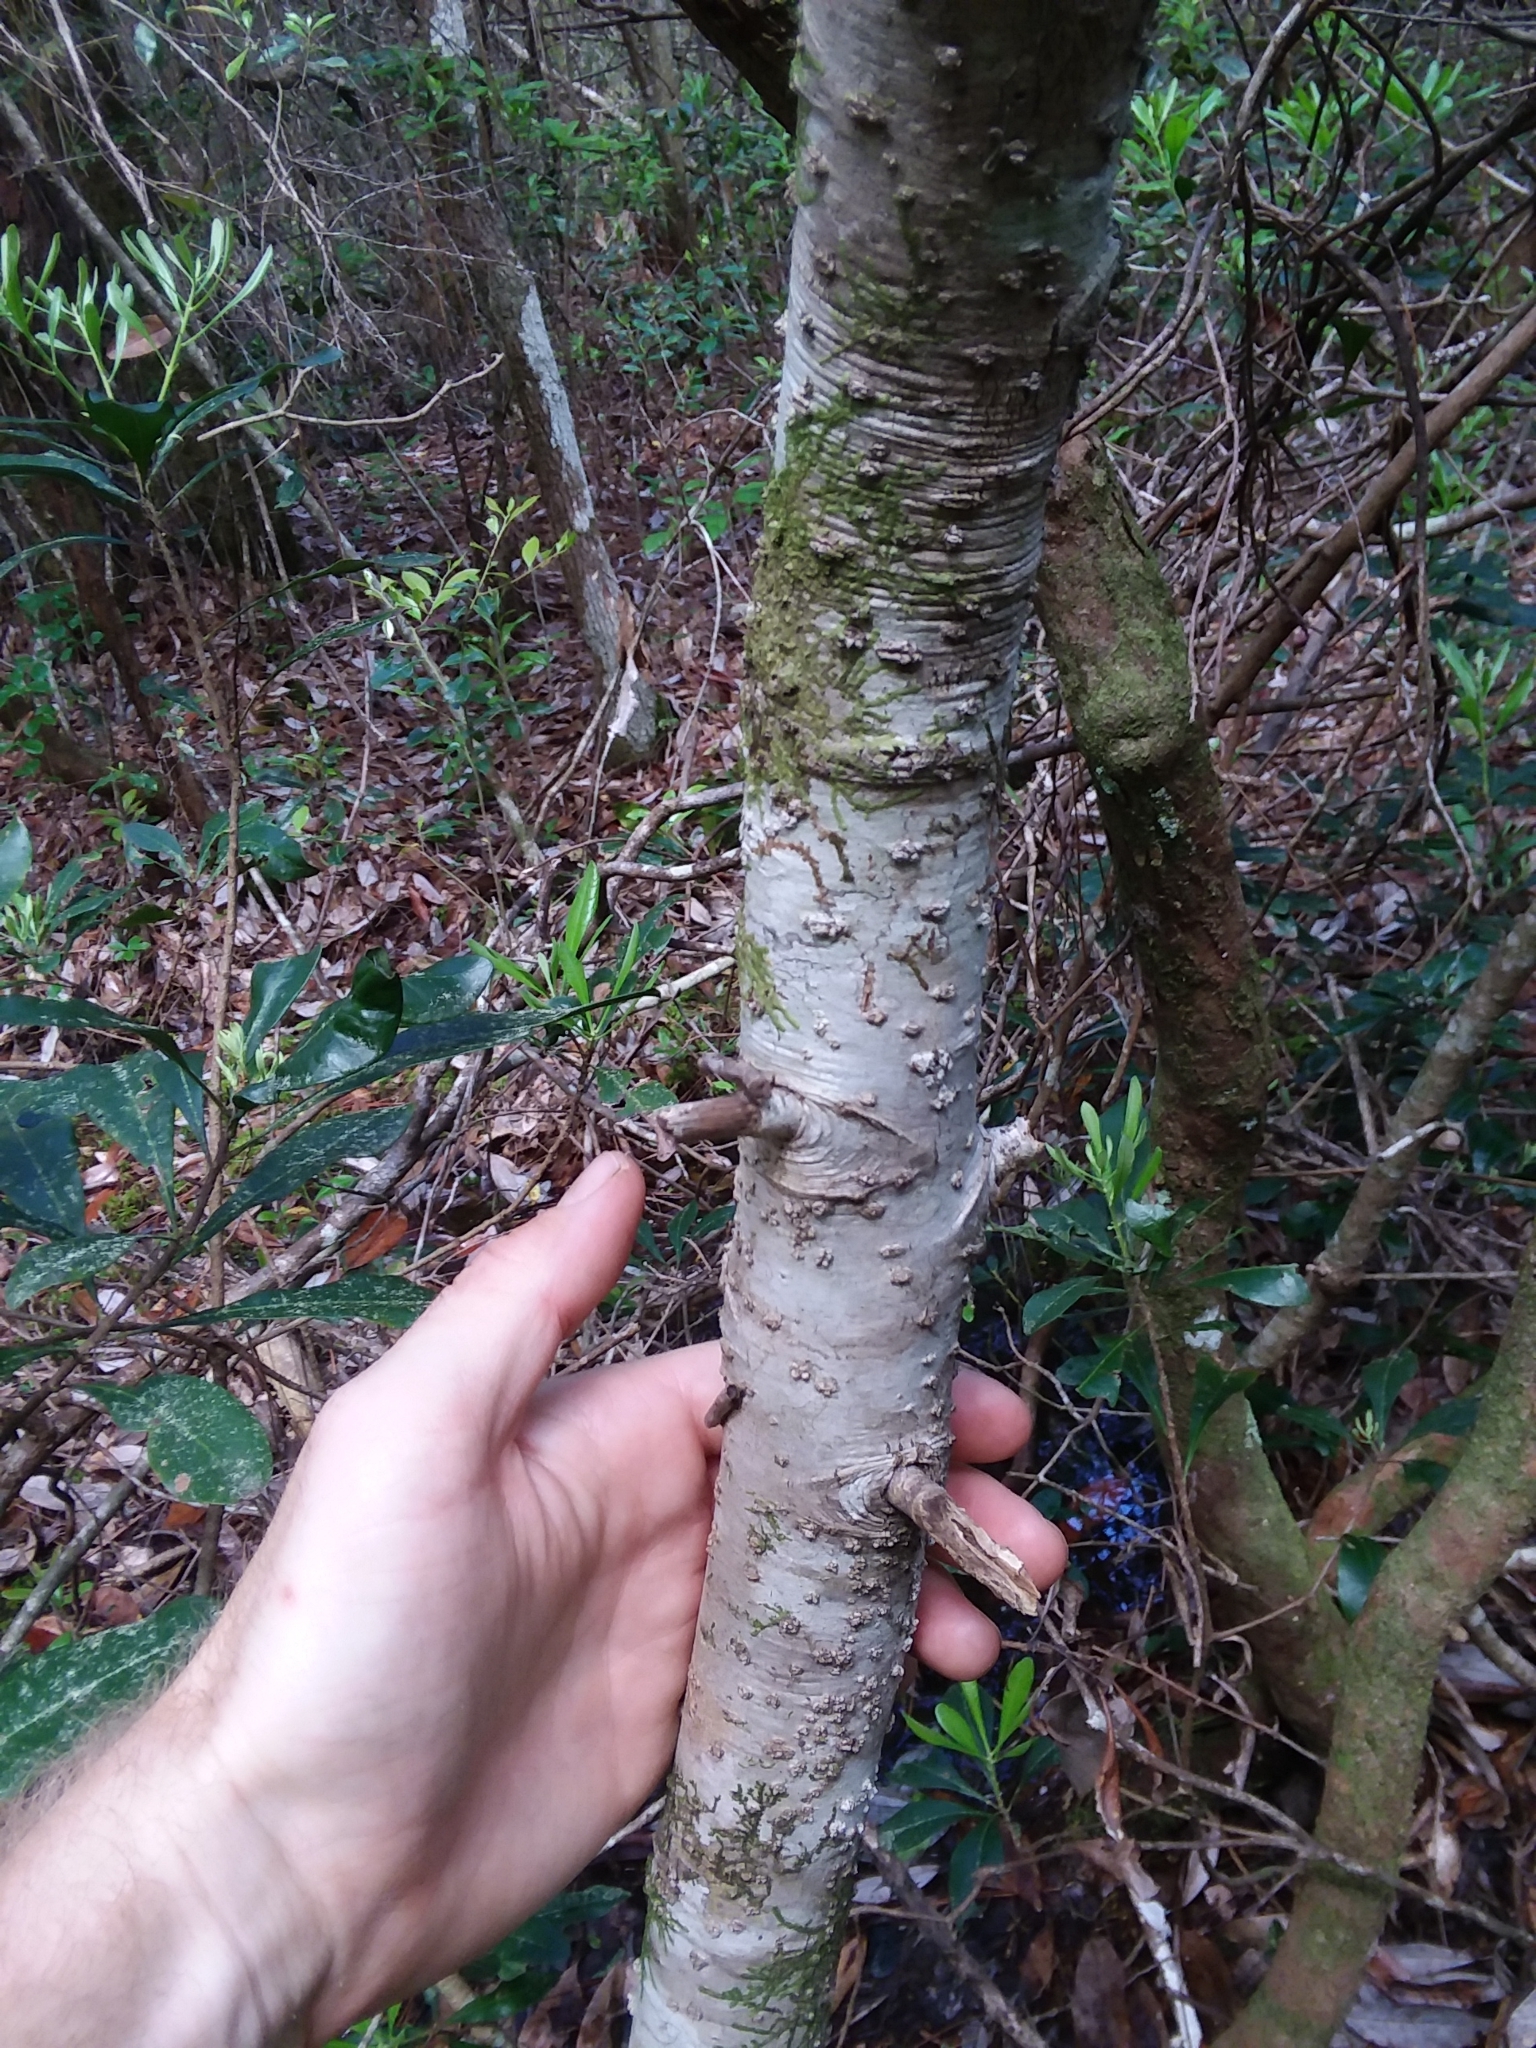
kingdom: Plantae
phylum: Tracheophyta
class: Magnoliopsida
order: Fagales
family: Myricaceae
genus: Morella
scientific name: Morella inodora
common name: Candle-berry
